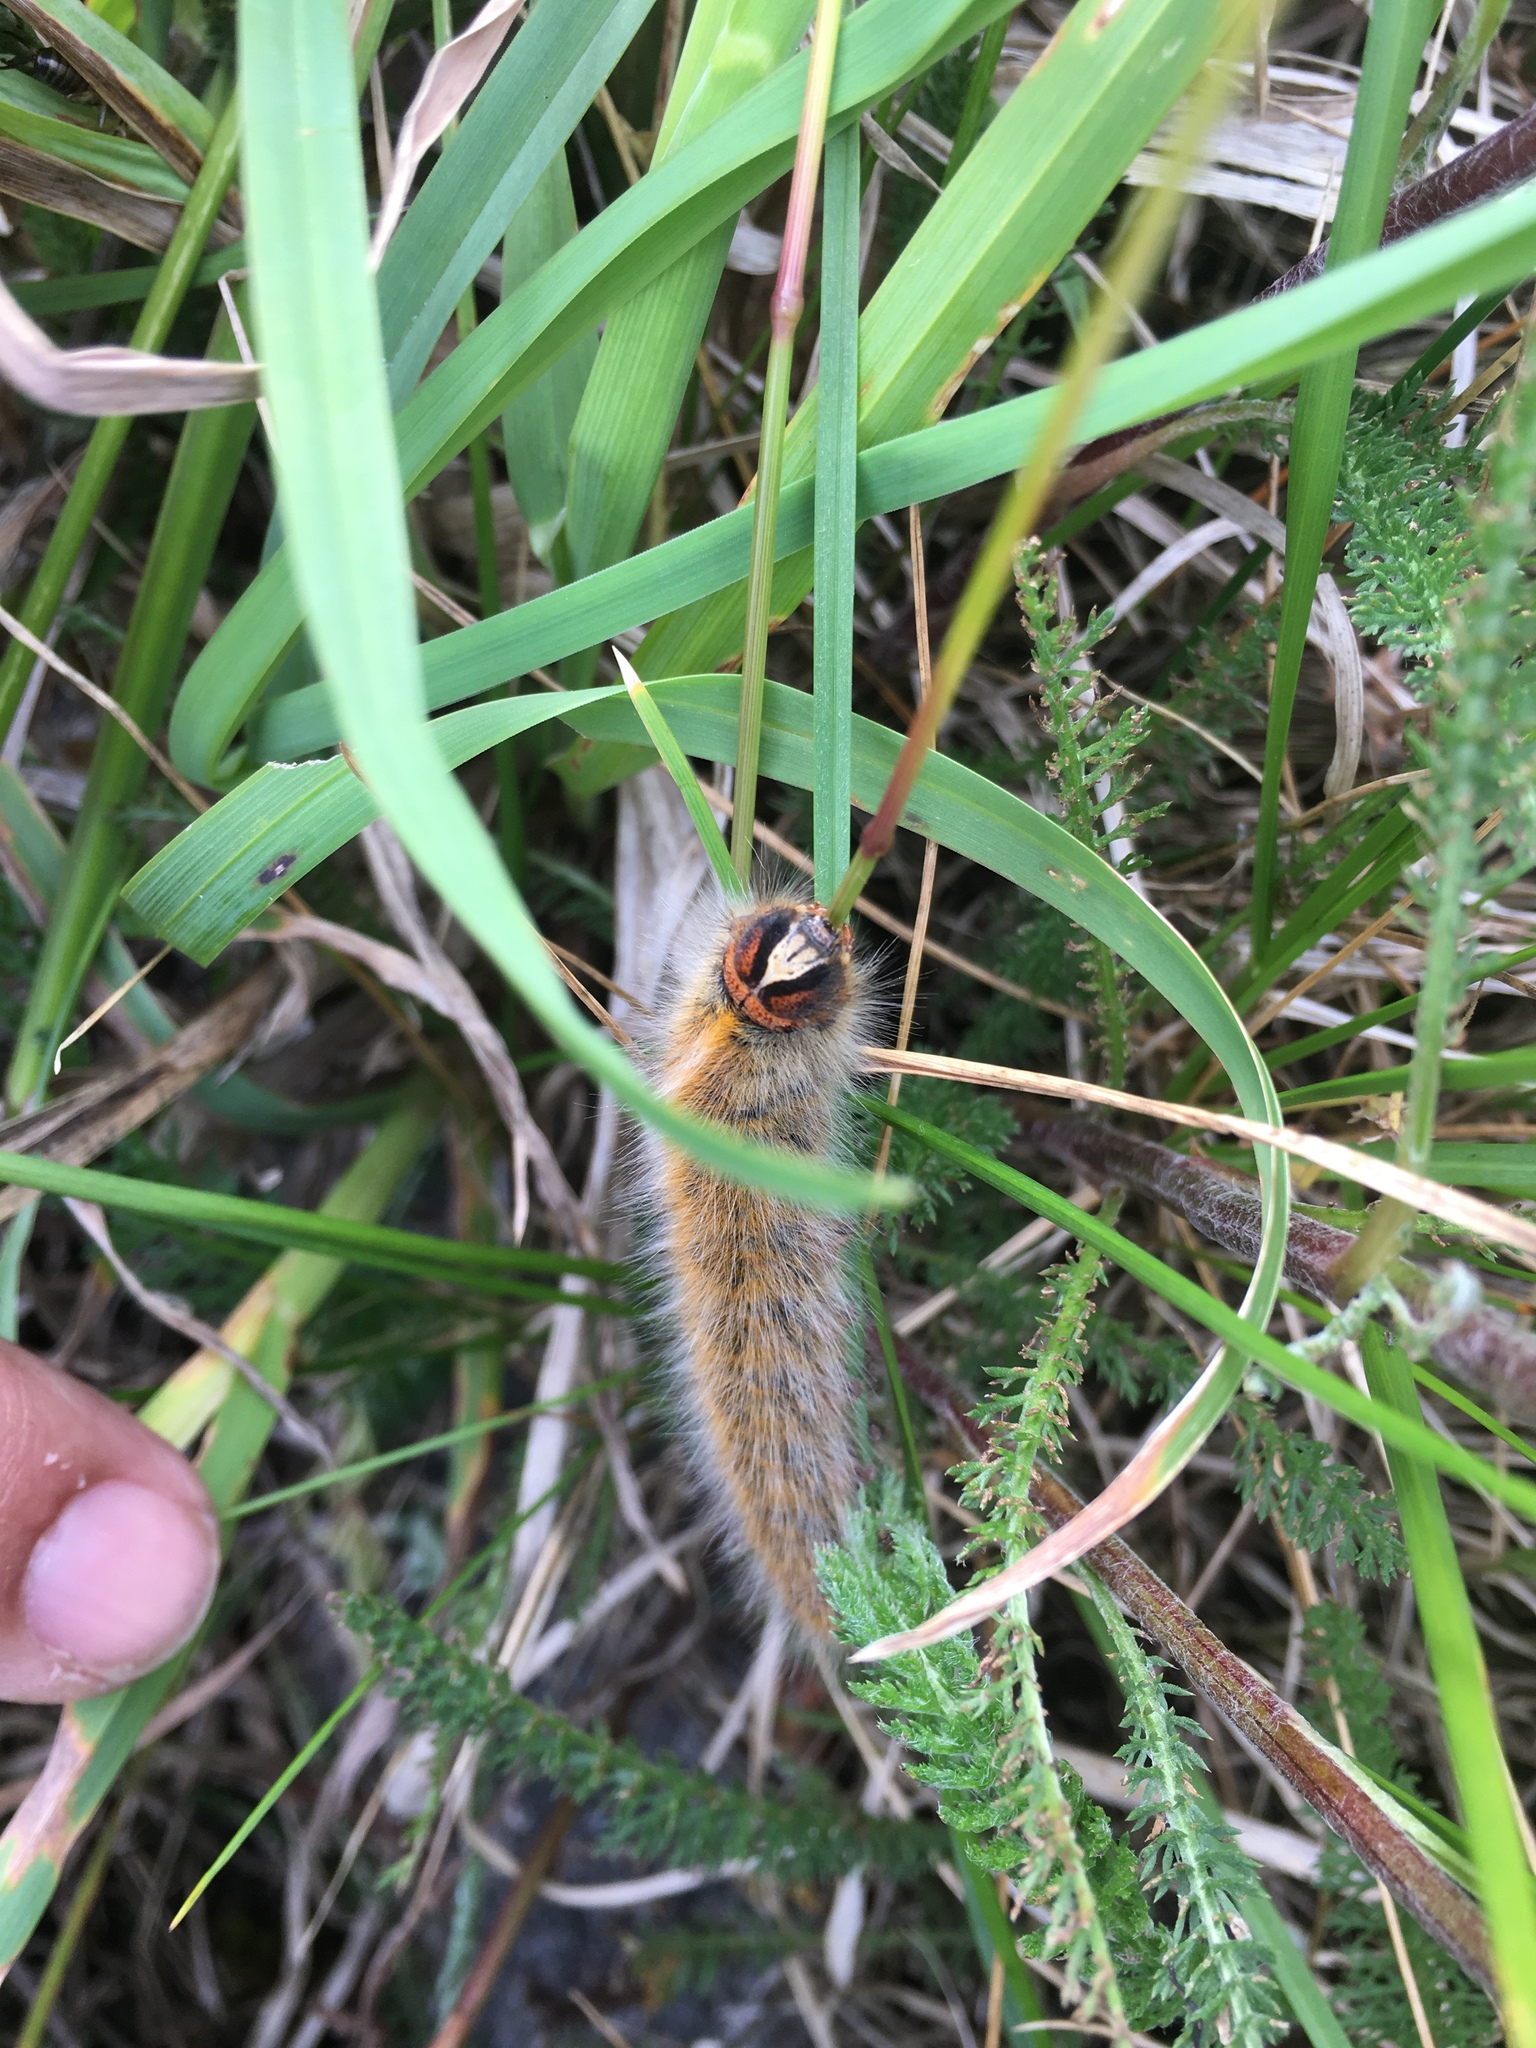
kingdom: Animalia
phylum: Arthropoda
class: Insecta
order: Lepidoptera
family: Lasiocampidae
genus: Lasiocampa
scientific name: Lasiocampa trifolii
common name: Grass eggar
